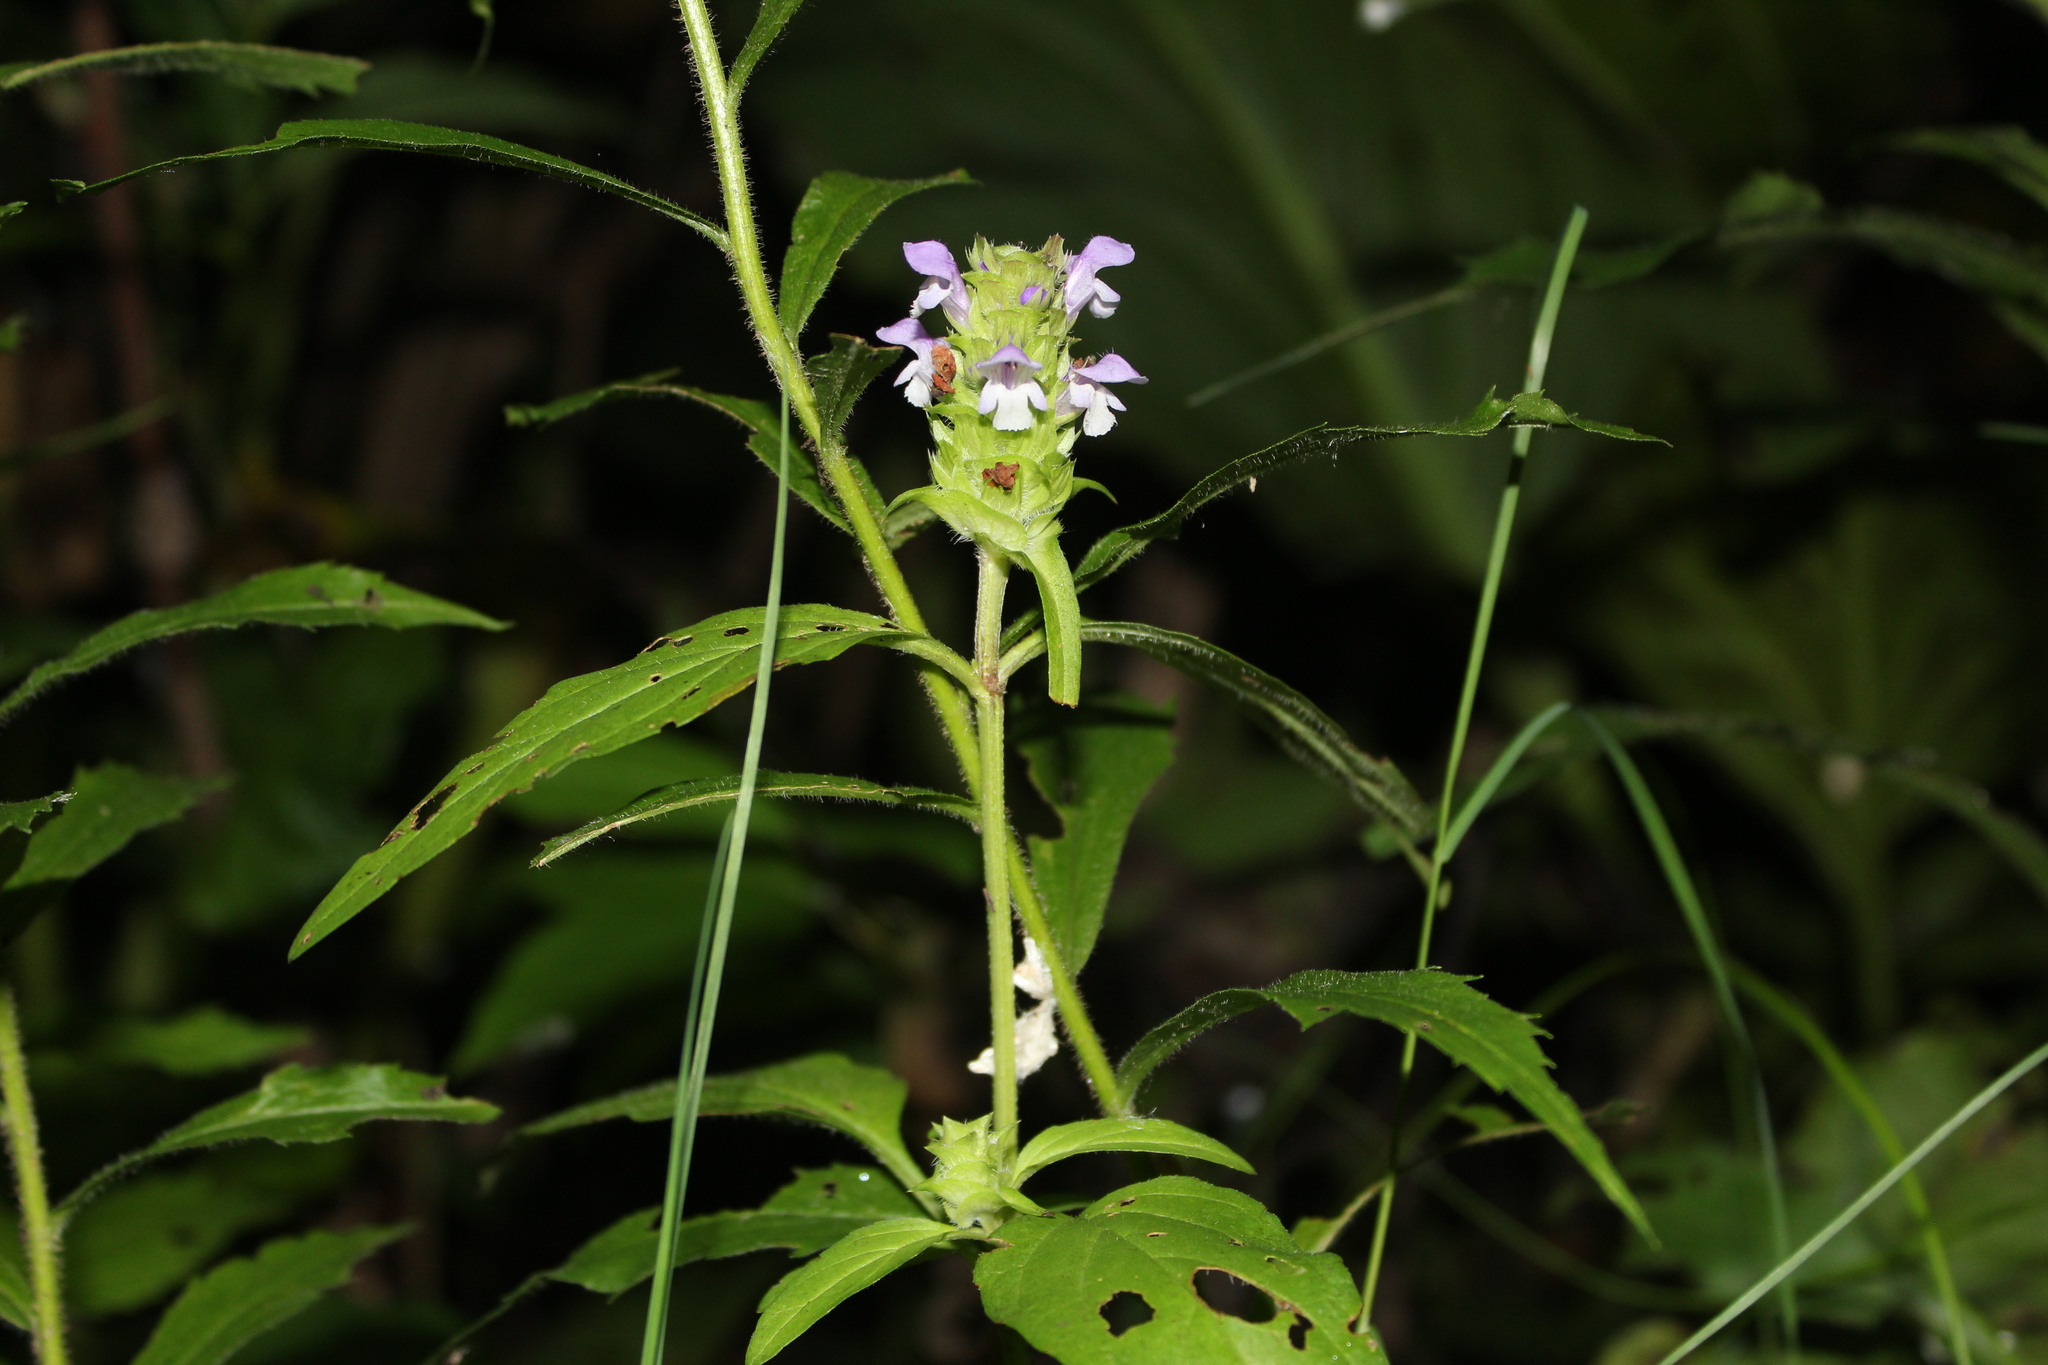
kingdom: Plantae
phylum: Tracheophyta
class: Magnoliopsida
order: Lamiales
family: Lamiaceae
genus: Prunella
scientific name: Prunella vulgaris
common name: Heal-all
